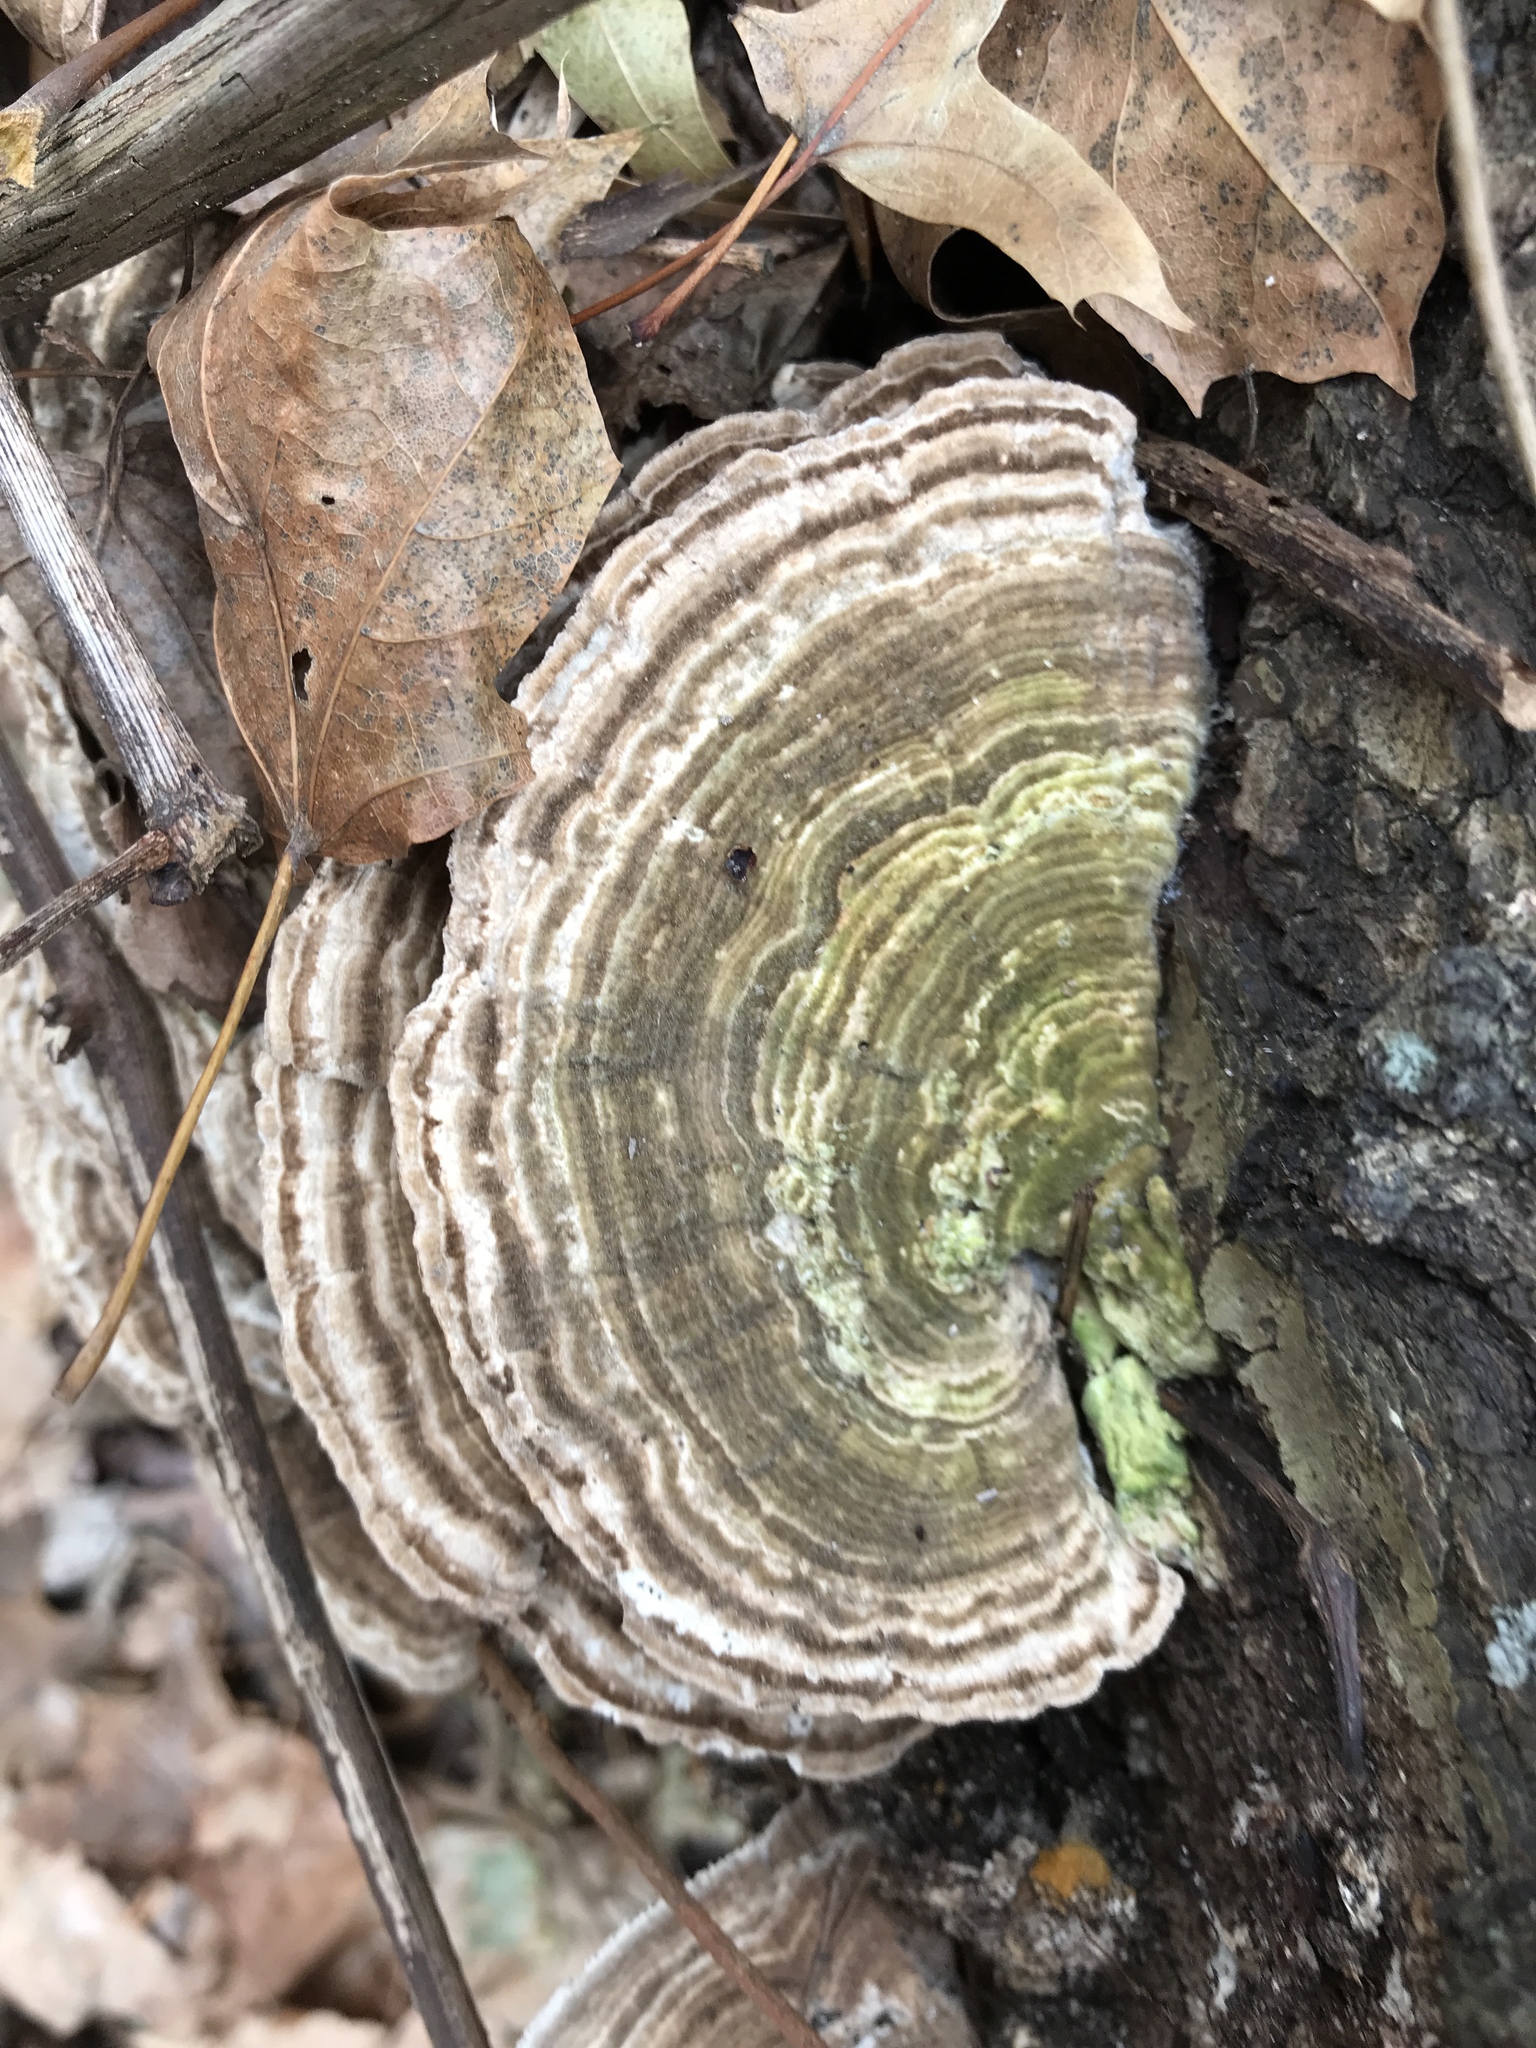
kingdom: Fungi
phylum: Basidiomycota
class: Agaricomycetes
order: Polyporales
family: Polyporaceae
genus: Trametes
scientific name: Trametes versicolor
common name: Turkeytail
